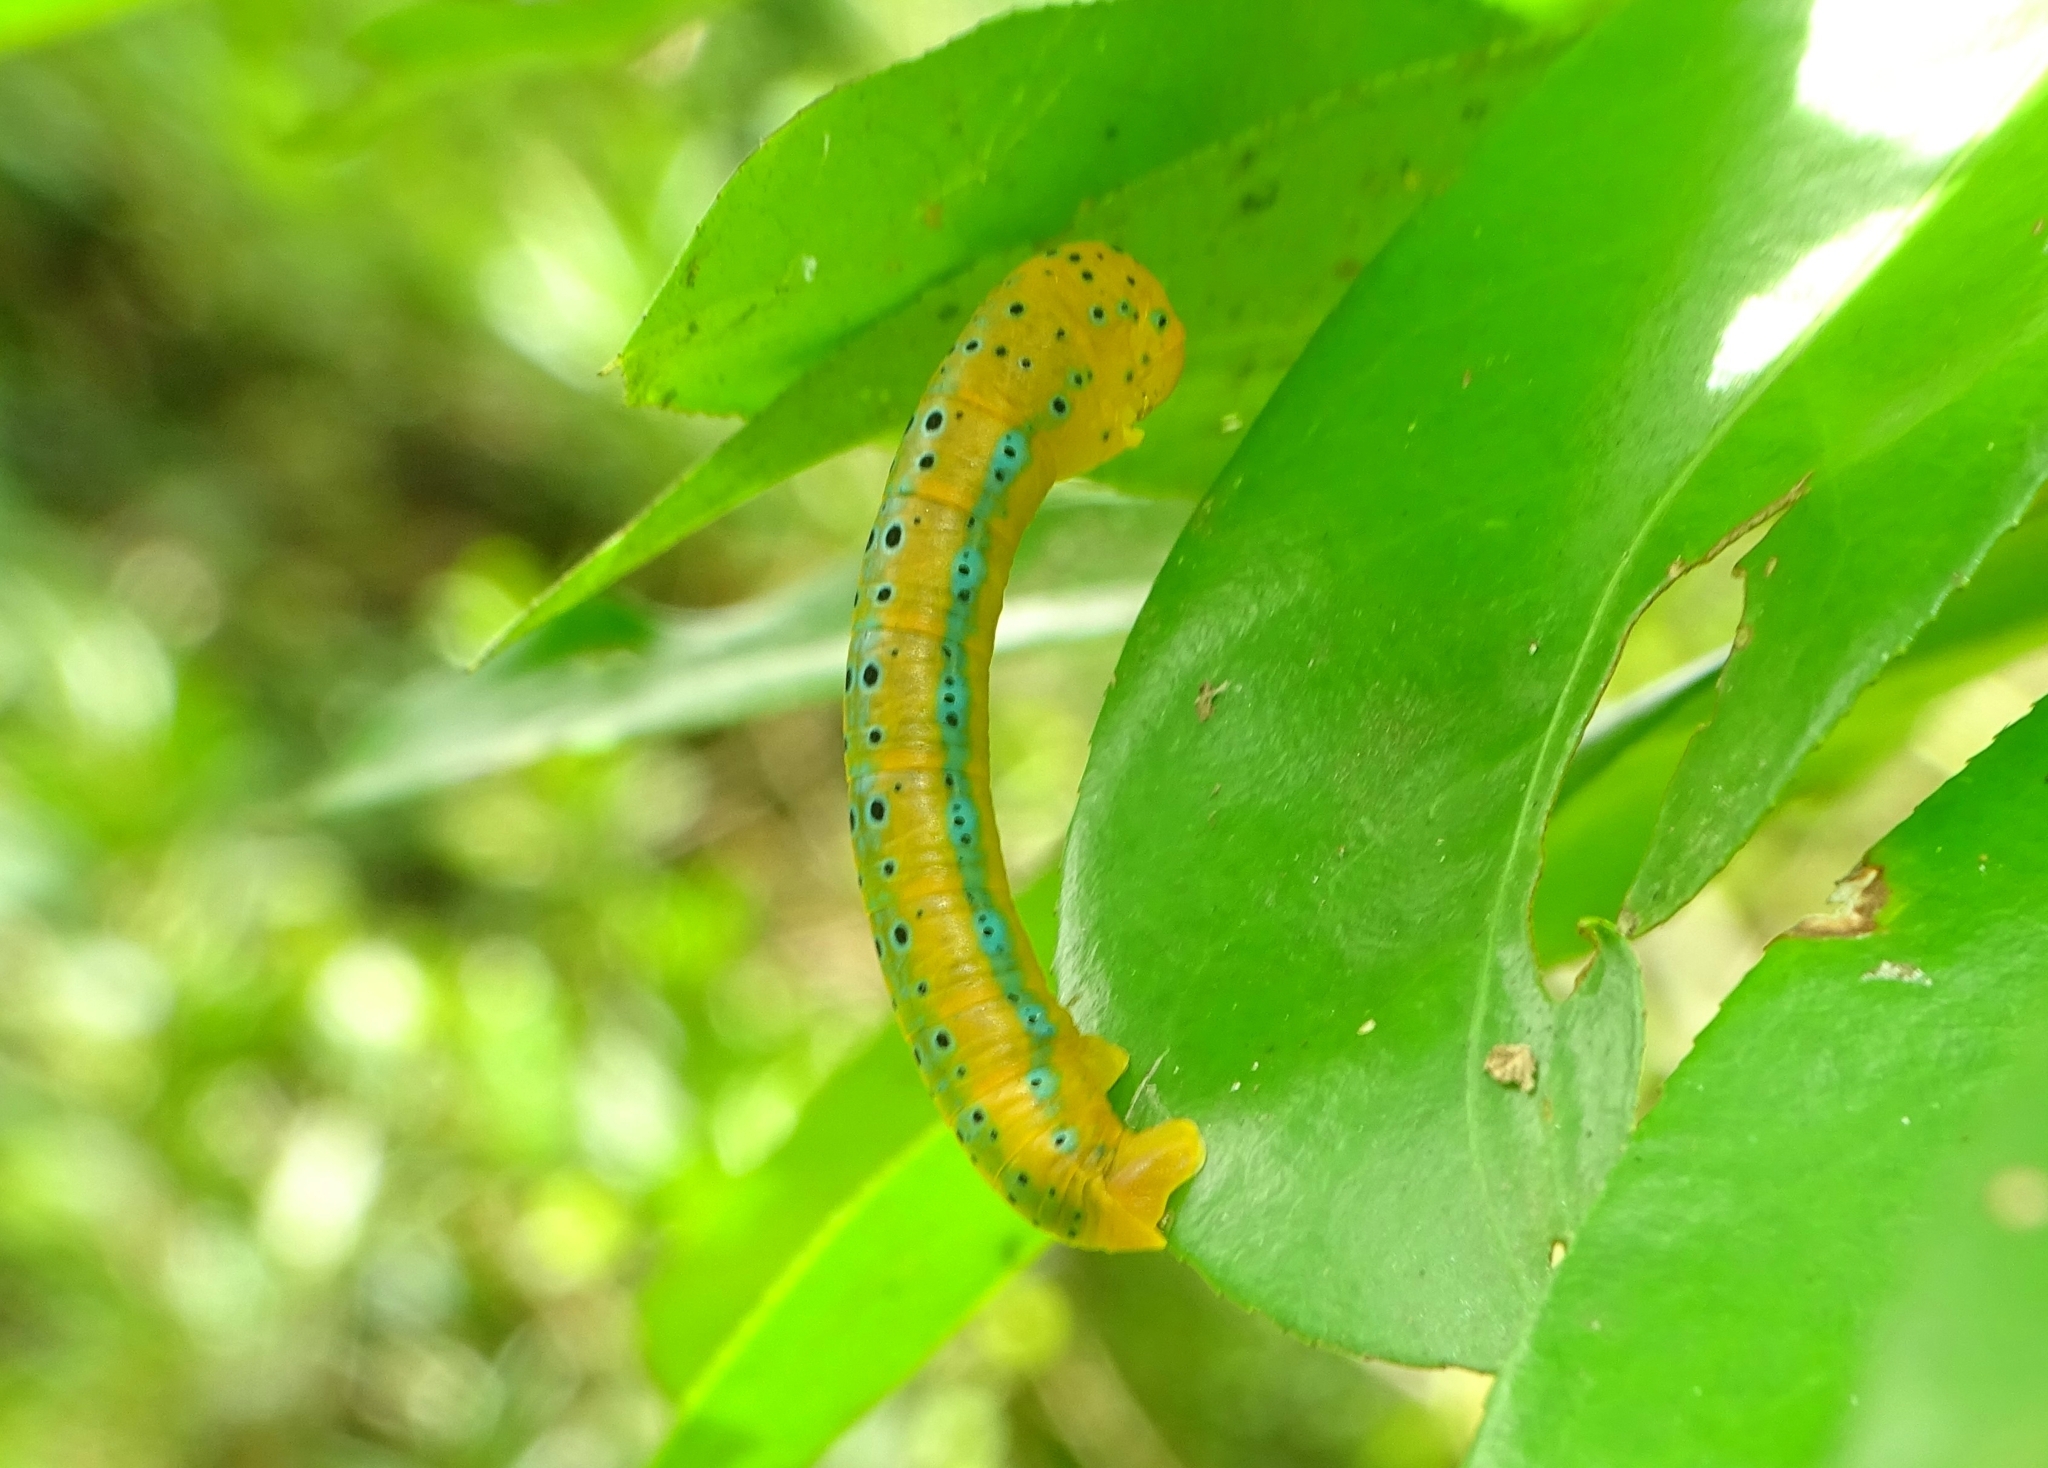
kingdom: Animalia
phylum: Arthropoda
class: Insecta
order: Lepidoptera
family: Geometridae
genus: Dysphania
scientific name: Dysphania percota
